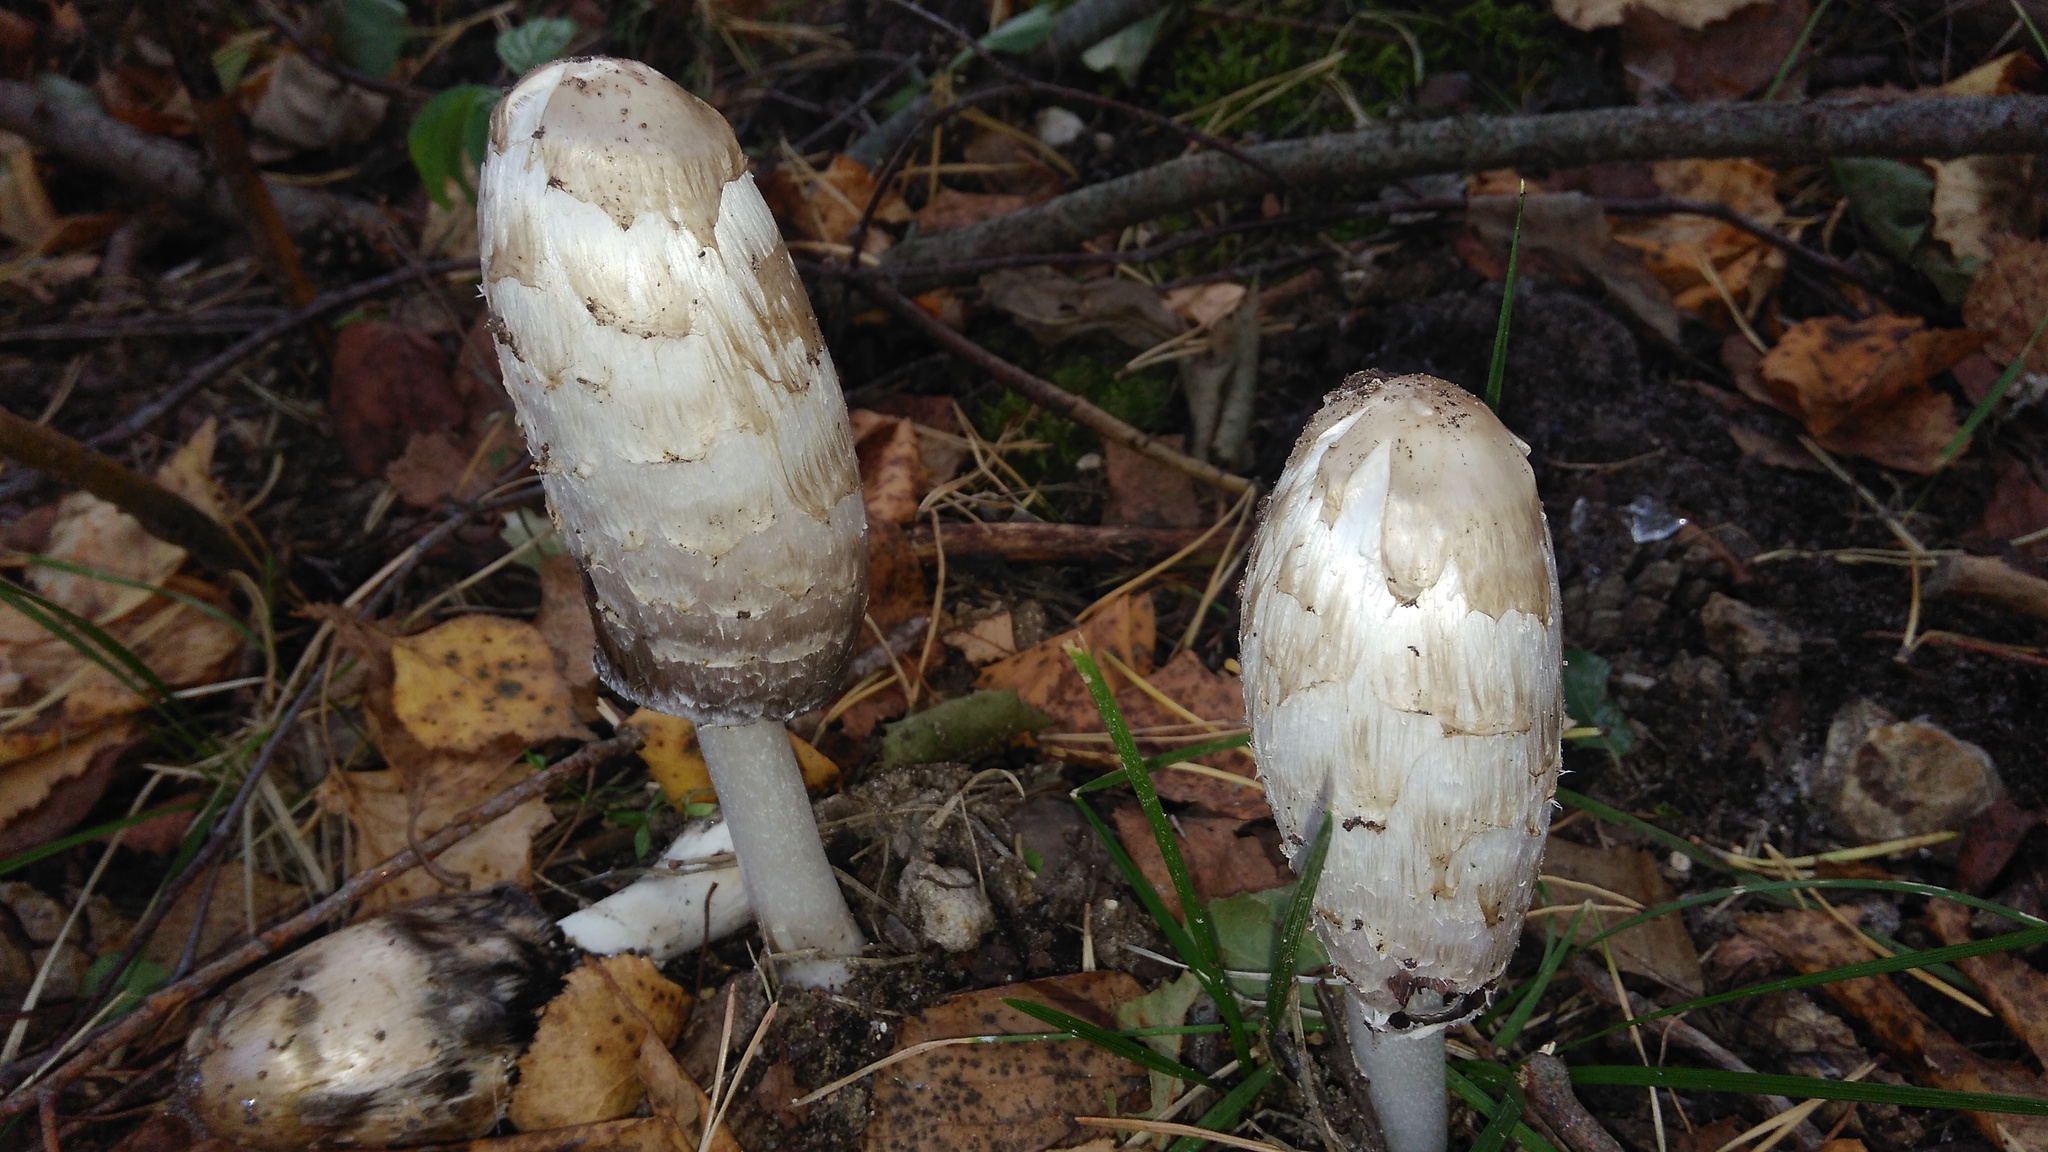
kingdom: Fungi
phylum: Basidiomycota
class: Agaricomycetes
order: Agaricales
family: Agaricaceae
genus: Coprinus
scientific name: Coprinus comatus
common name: Lawyer's wig
